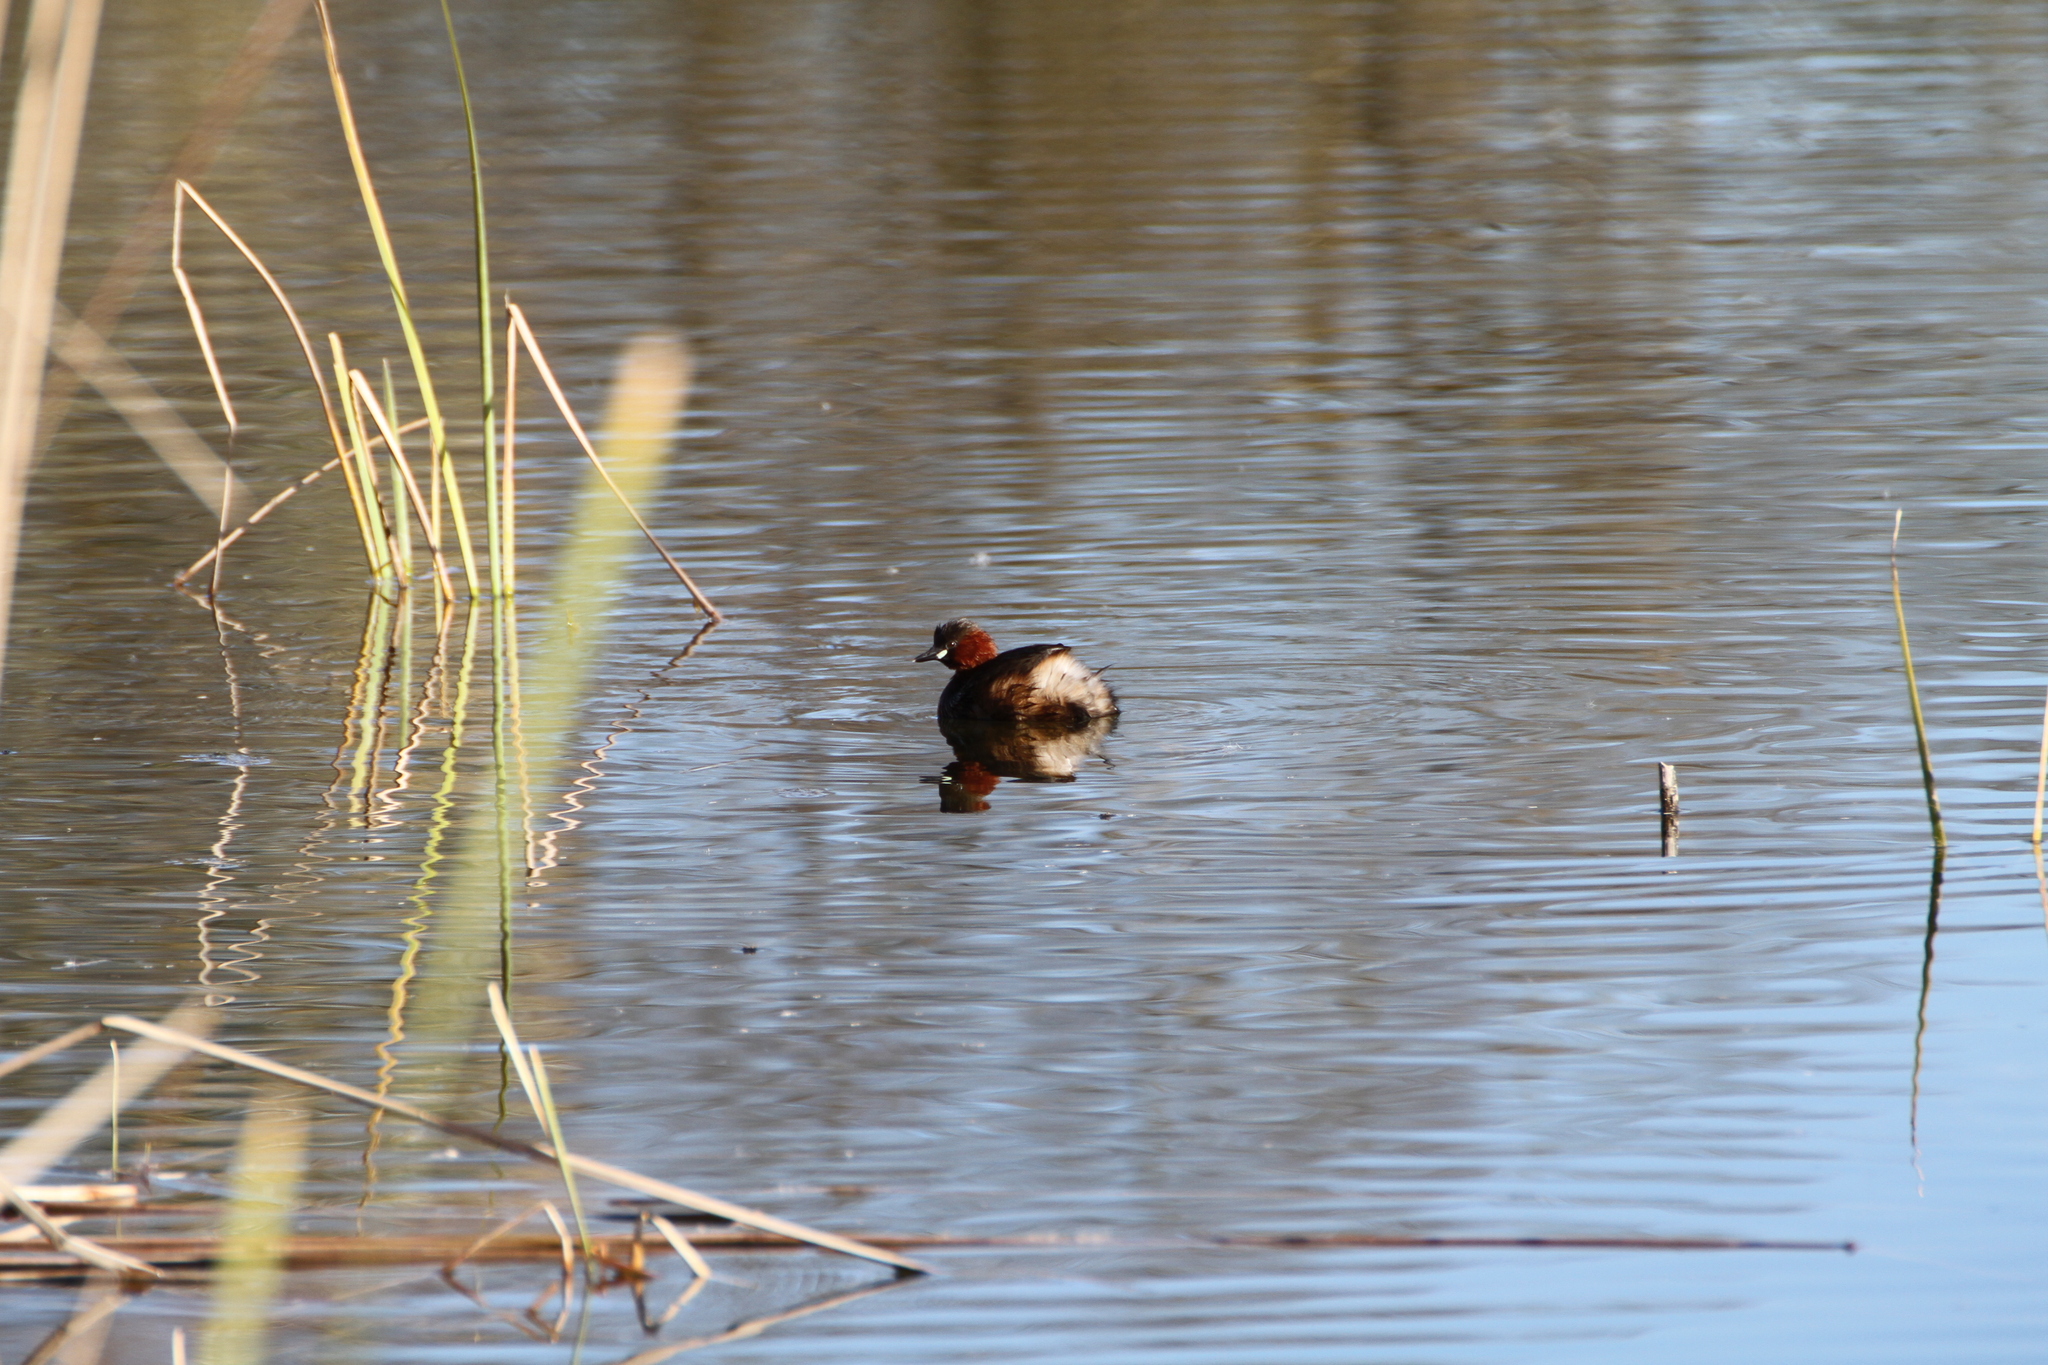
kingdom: Animalia
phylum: Chordata
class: Aves
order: Podicipediformes
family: Podicipedidae
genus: Tachybaptus
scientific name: Tachybaptus ruficollis
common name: Little grebe
